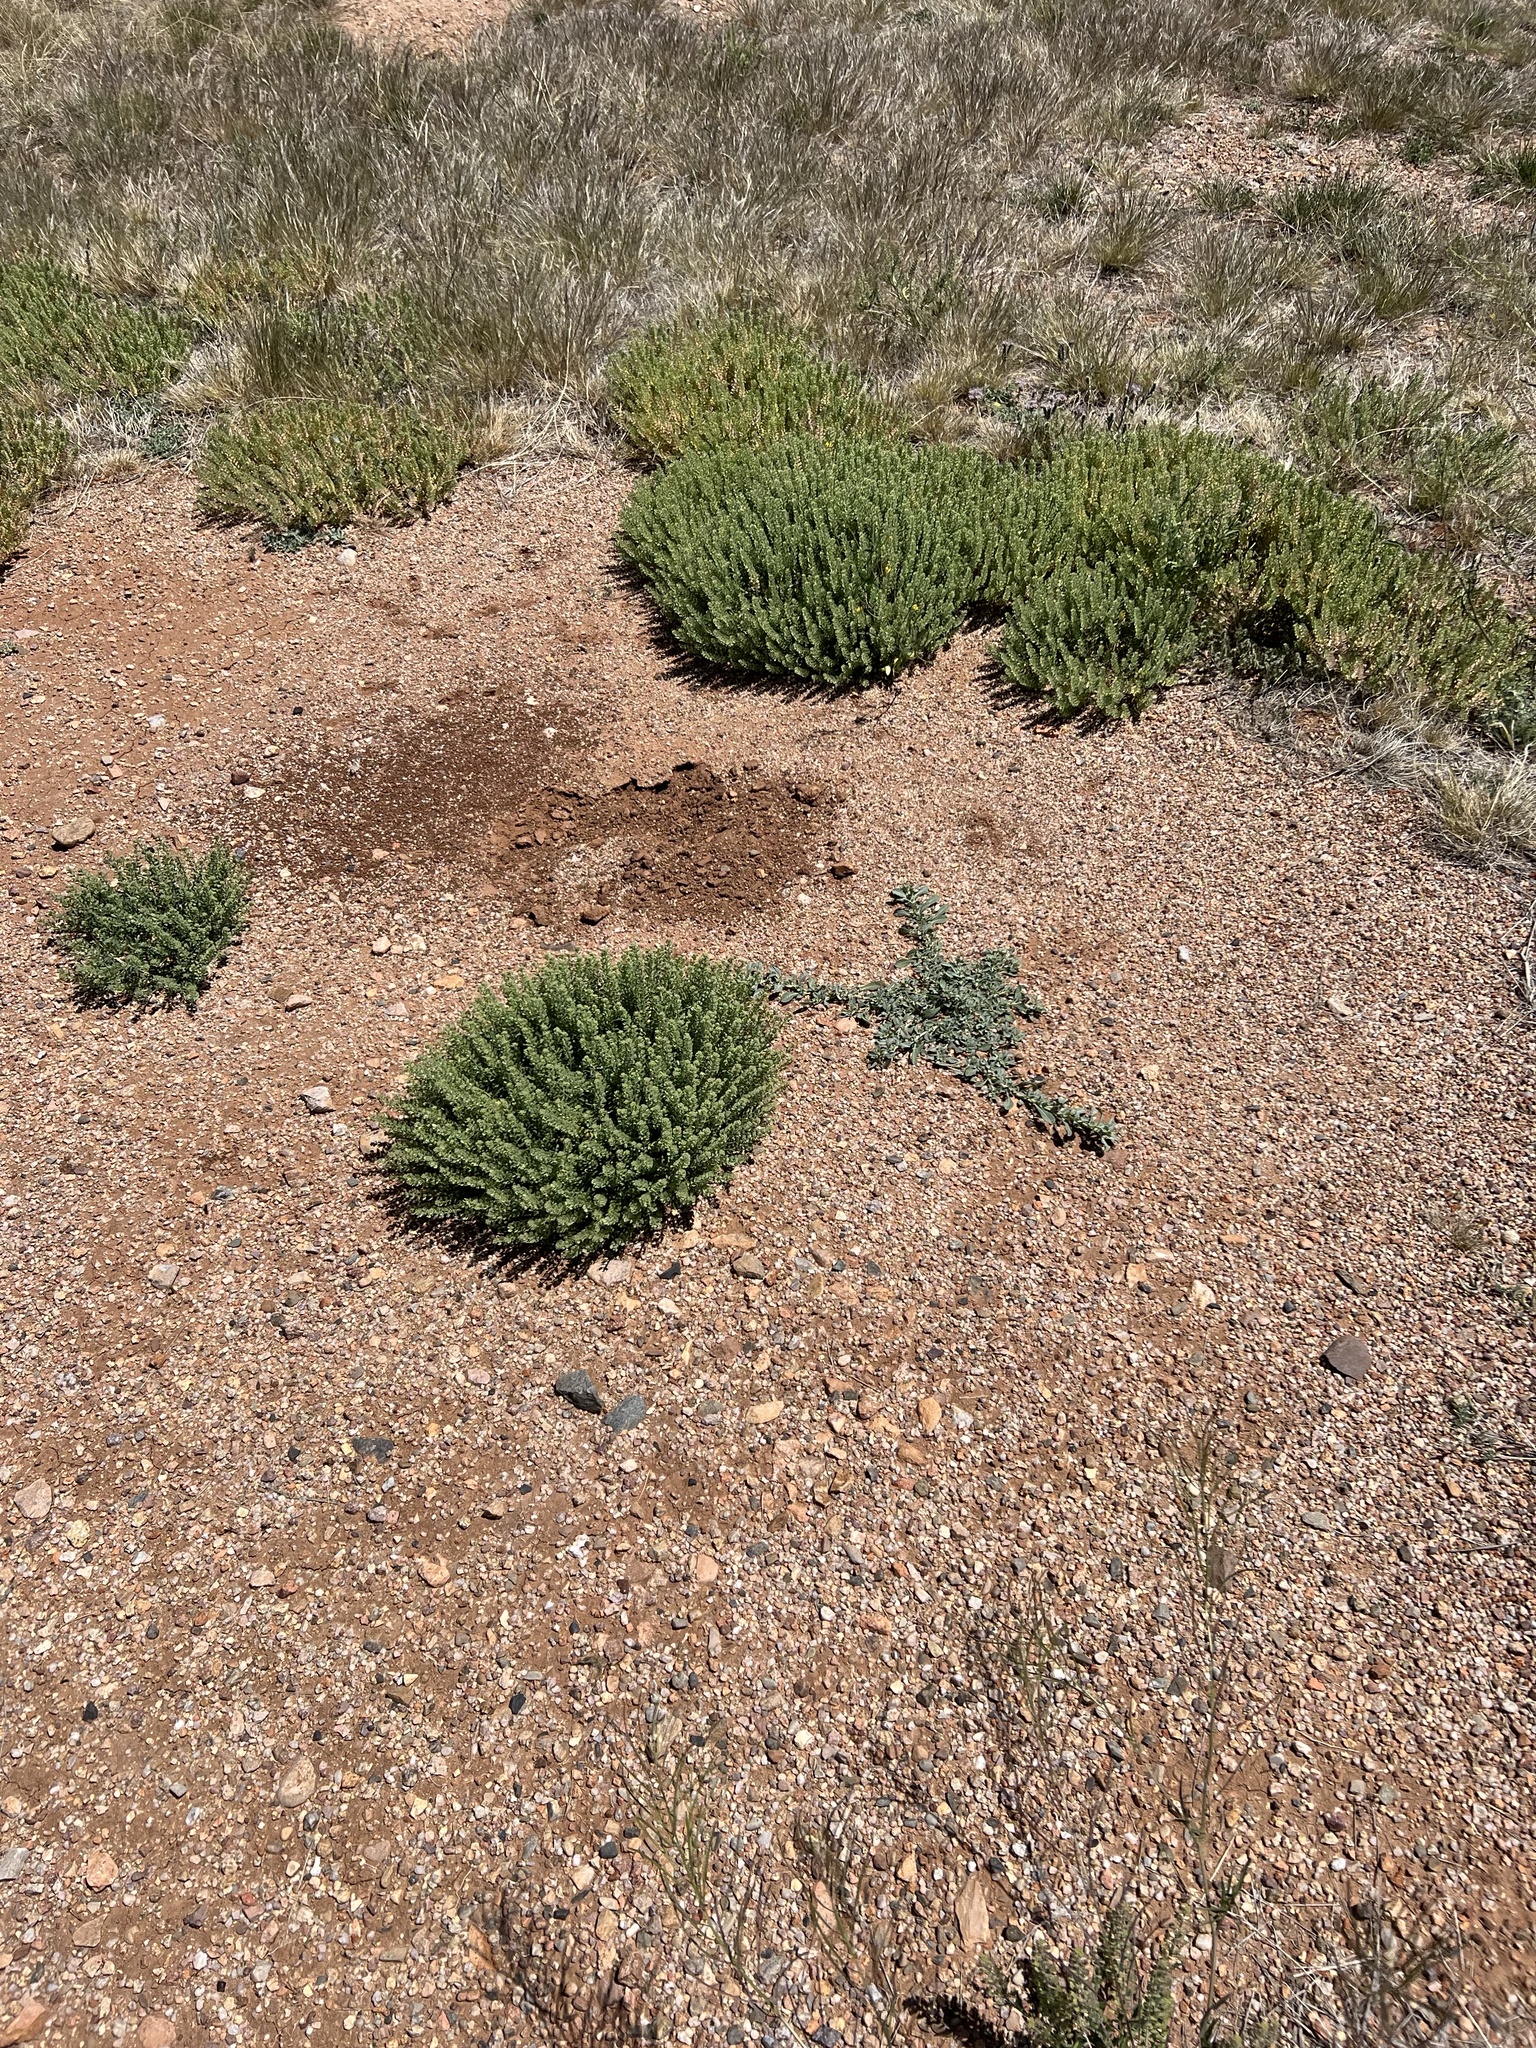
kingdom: Plantae
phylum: Tracheophyta
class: Magnoliopsida
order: Brassicales
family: Brassicaceae
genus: Lepidium
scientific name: Lepidium lasiocarpum
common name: Hairy-pod pepperwort
